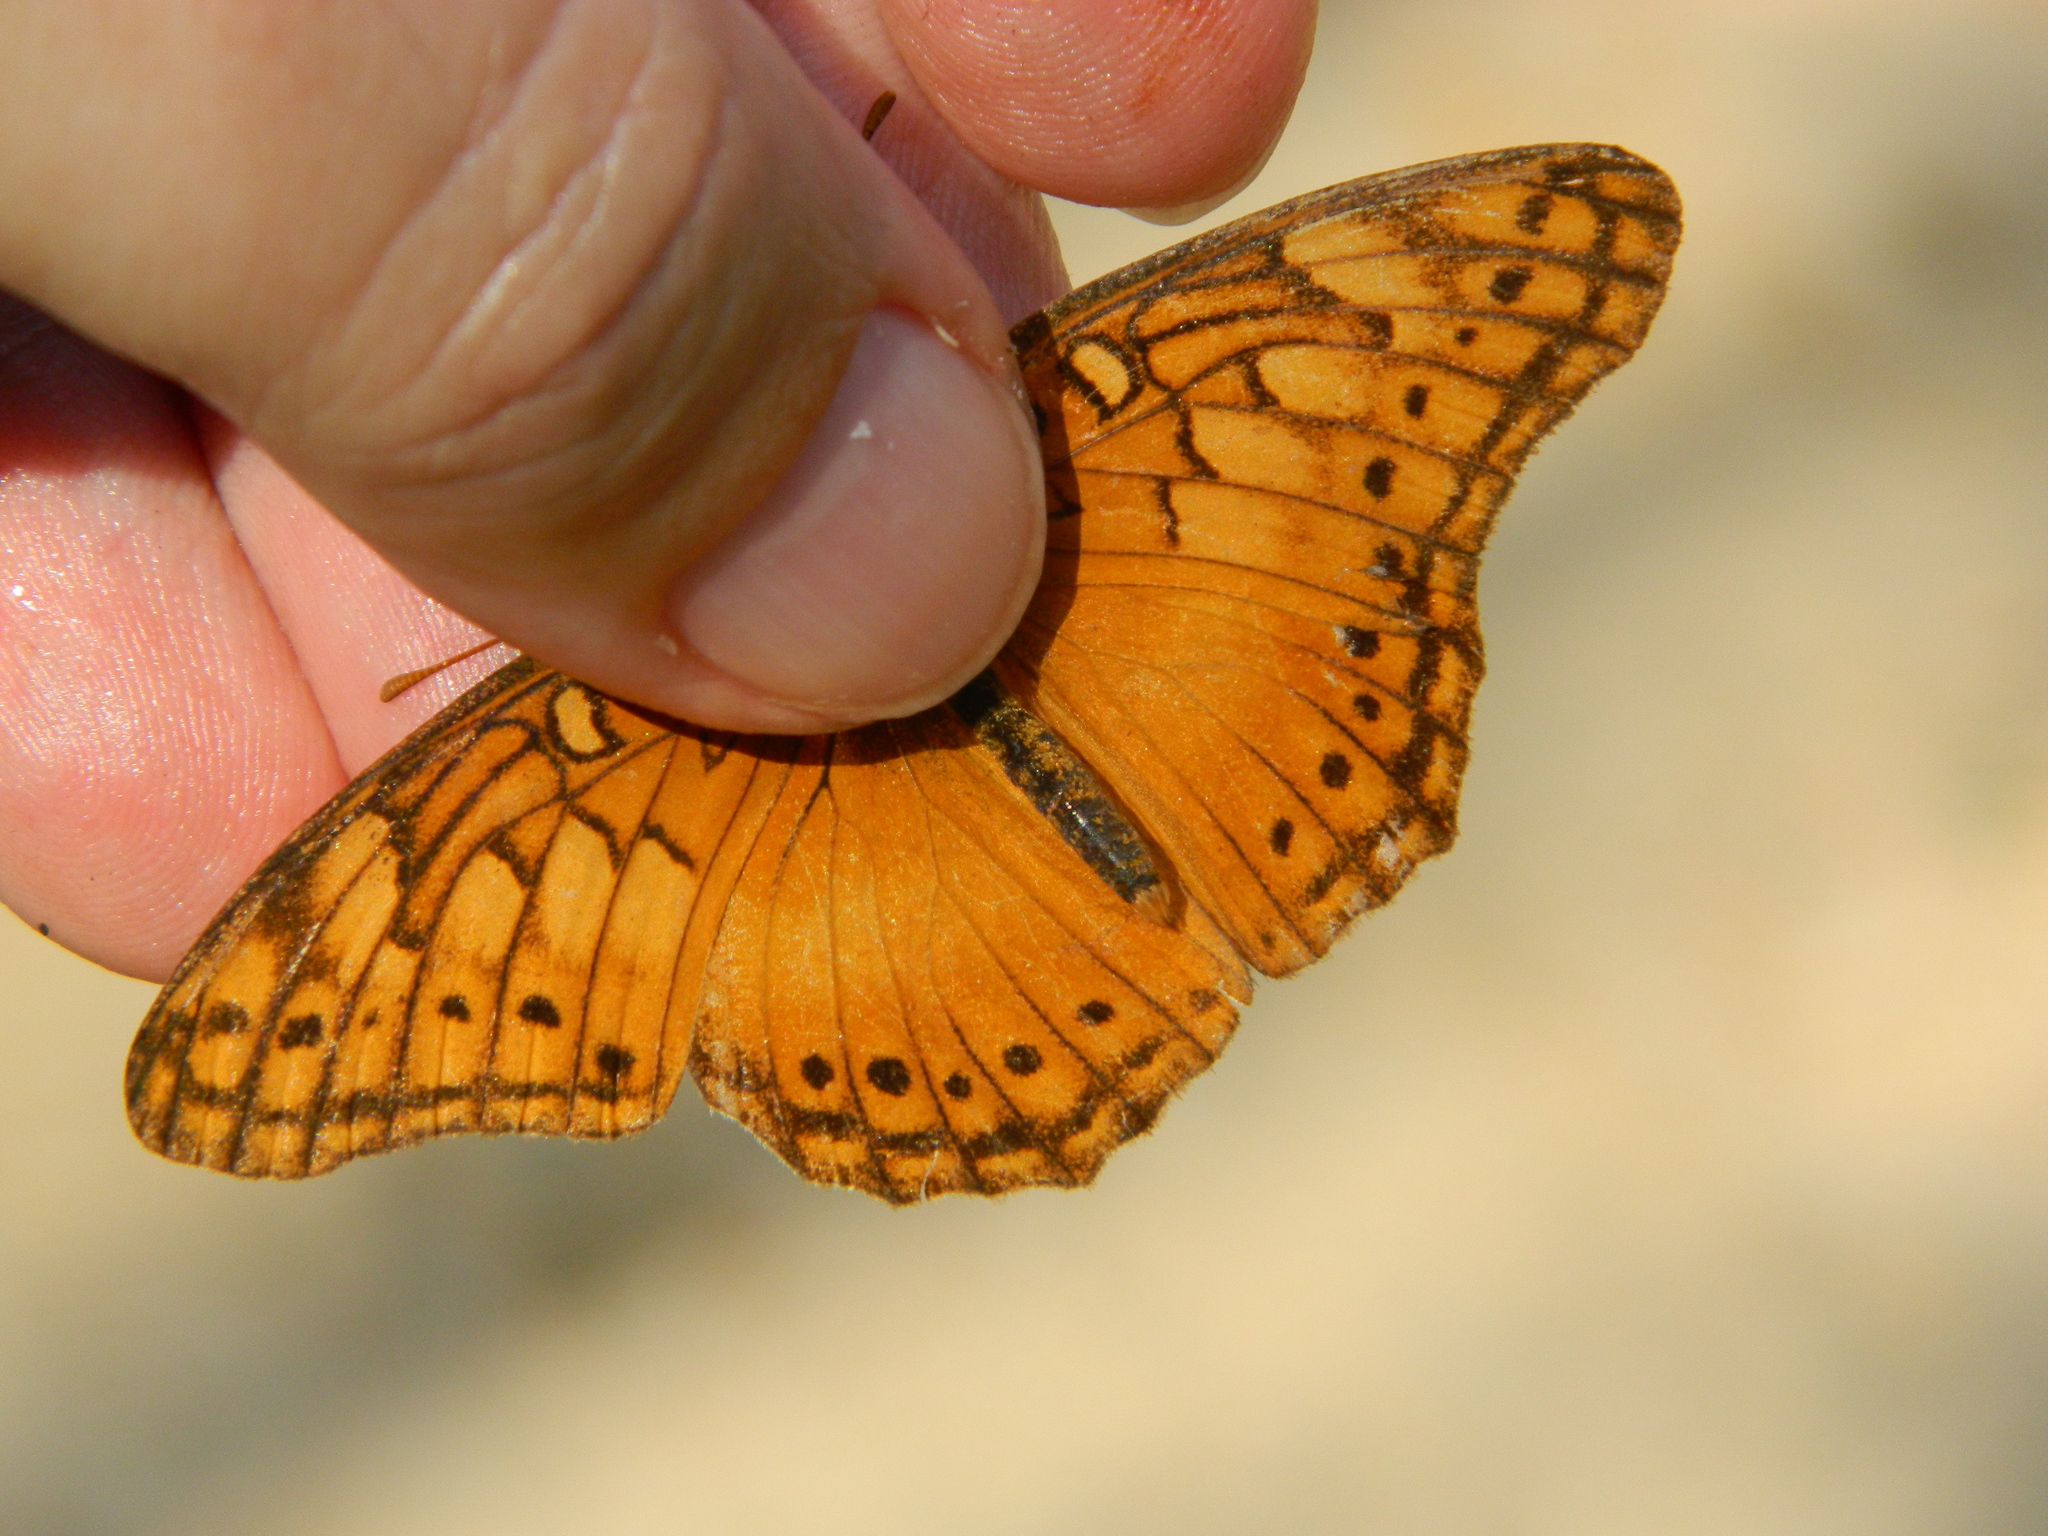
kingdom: Animalia
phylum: Arthropoda
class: Insecta
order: Lepidoptera
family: Nymphalidae
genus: Euptoieta
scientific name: Euptoieta hegesia
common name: Mexican fritillary
